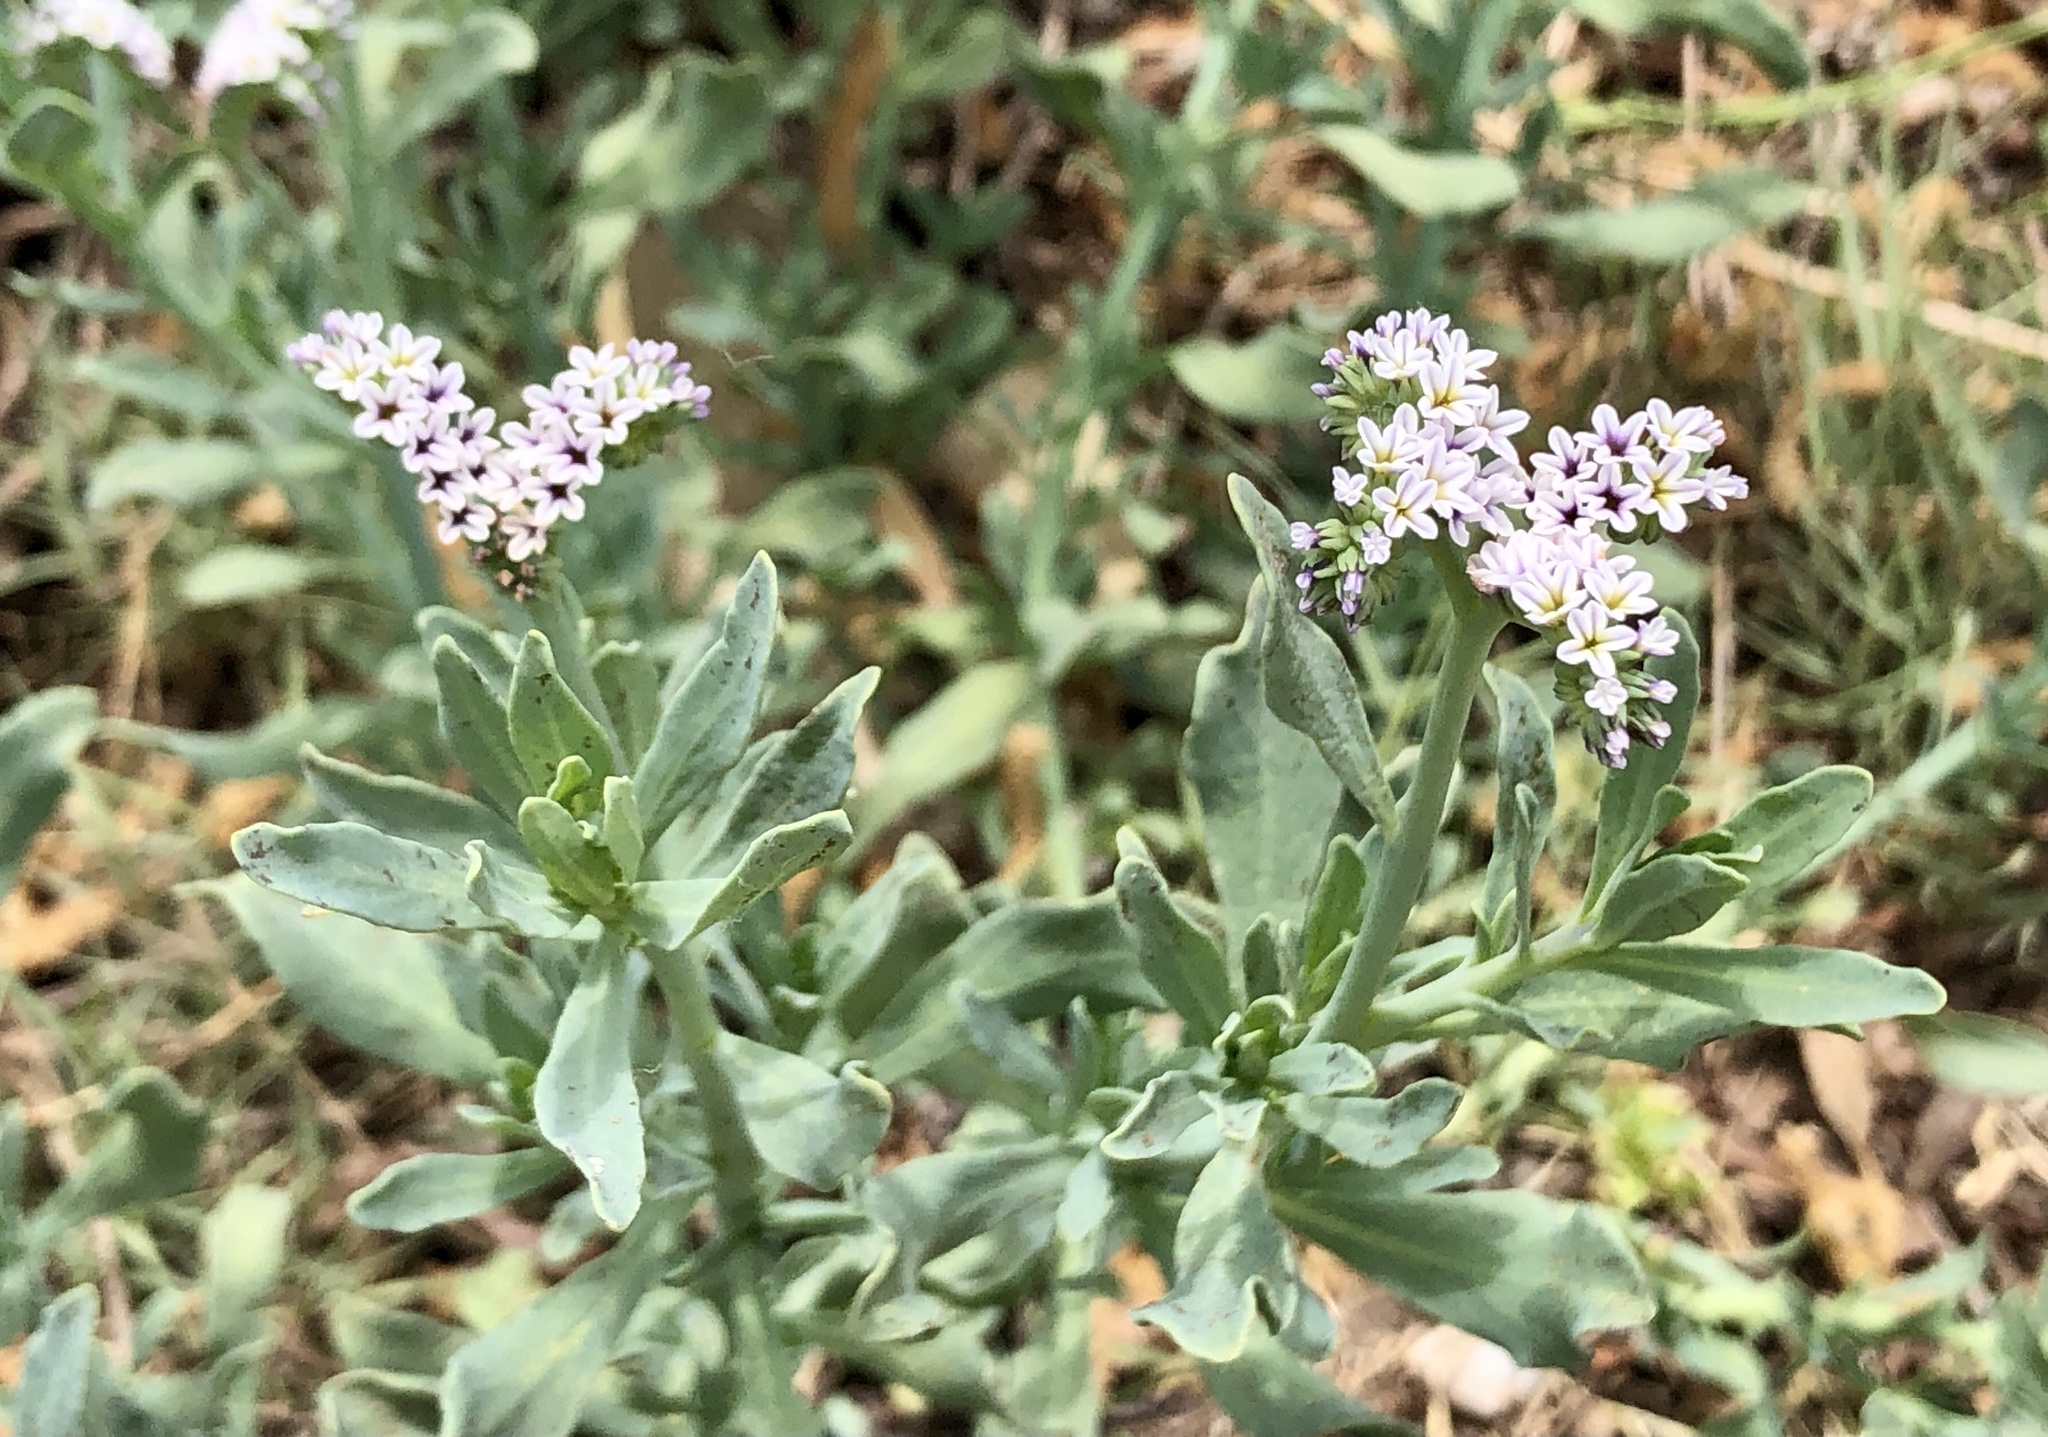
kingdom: Plantae
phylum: Tracheophyta
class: Magnoliopsida
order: Boraginales
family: Heliotropiaceae
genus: Heliotropium
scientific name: Heliotropium curassavicum
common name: Seaside heliotrope
